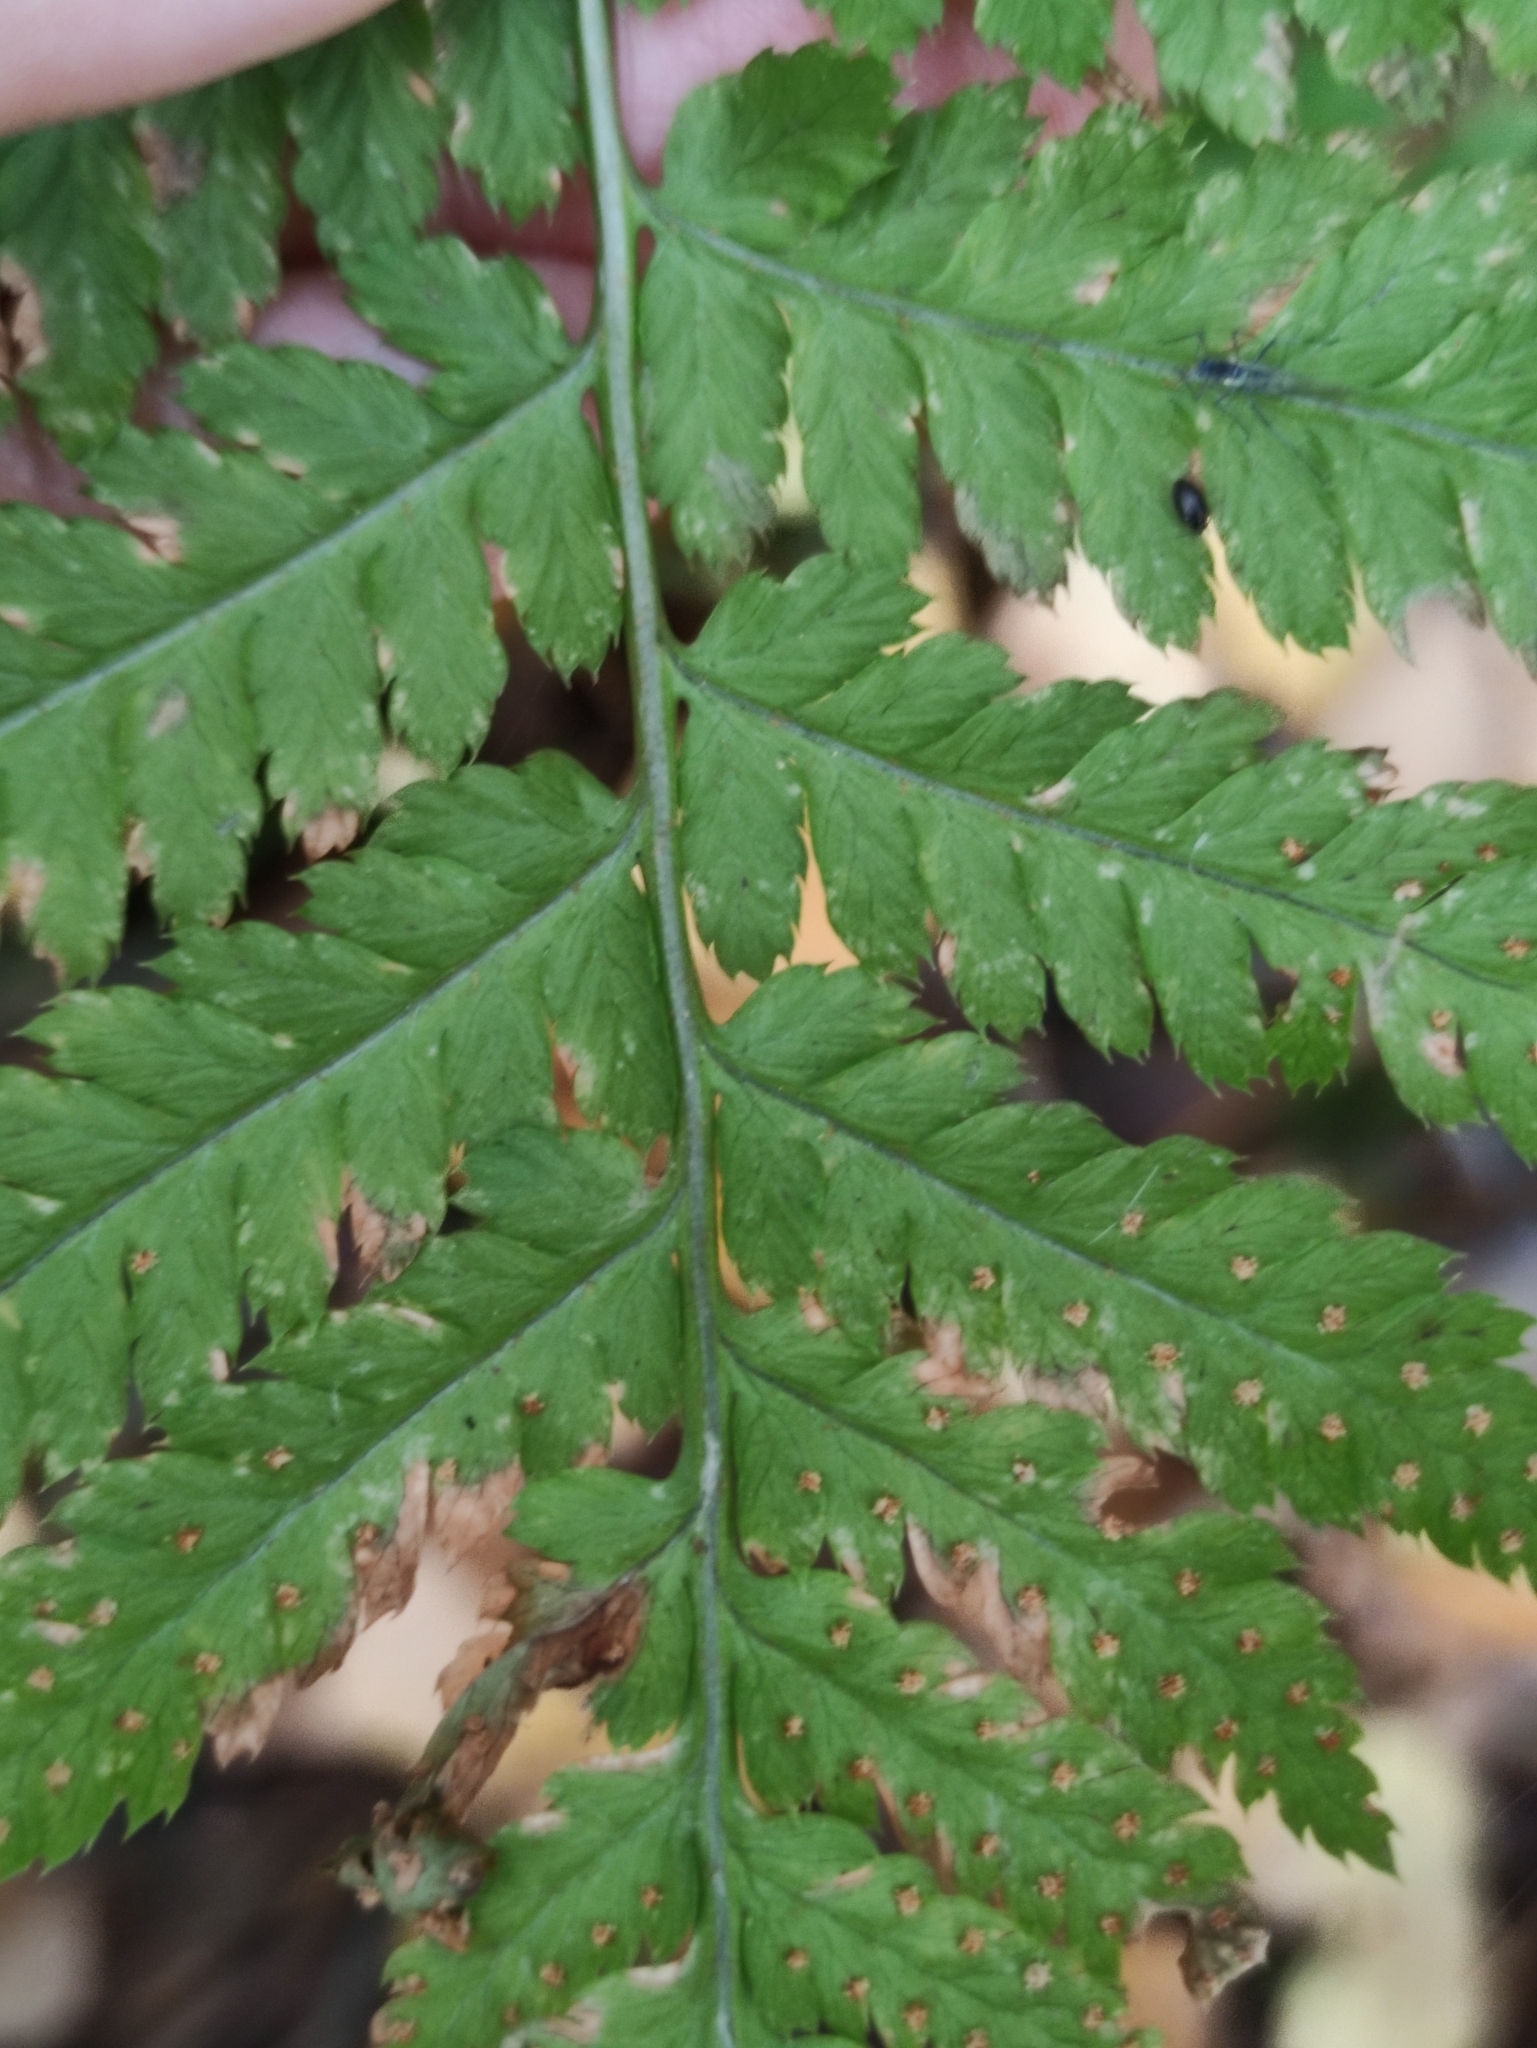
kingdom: Plantae
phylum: Tracheophyta
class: Polypodiopsida
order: Polypodiales
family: Dryopteridaceae
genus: Dryopteris
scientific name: Dryopteris carthusiana
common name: Narrow buckler-fern
